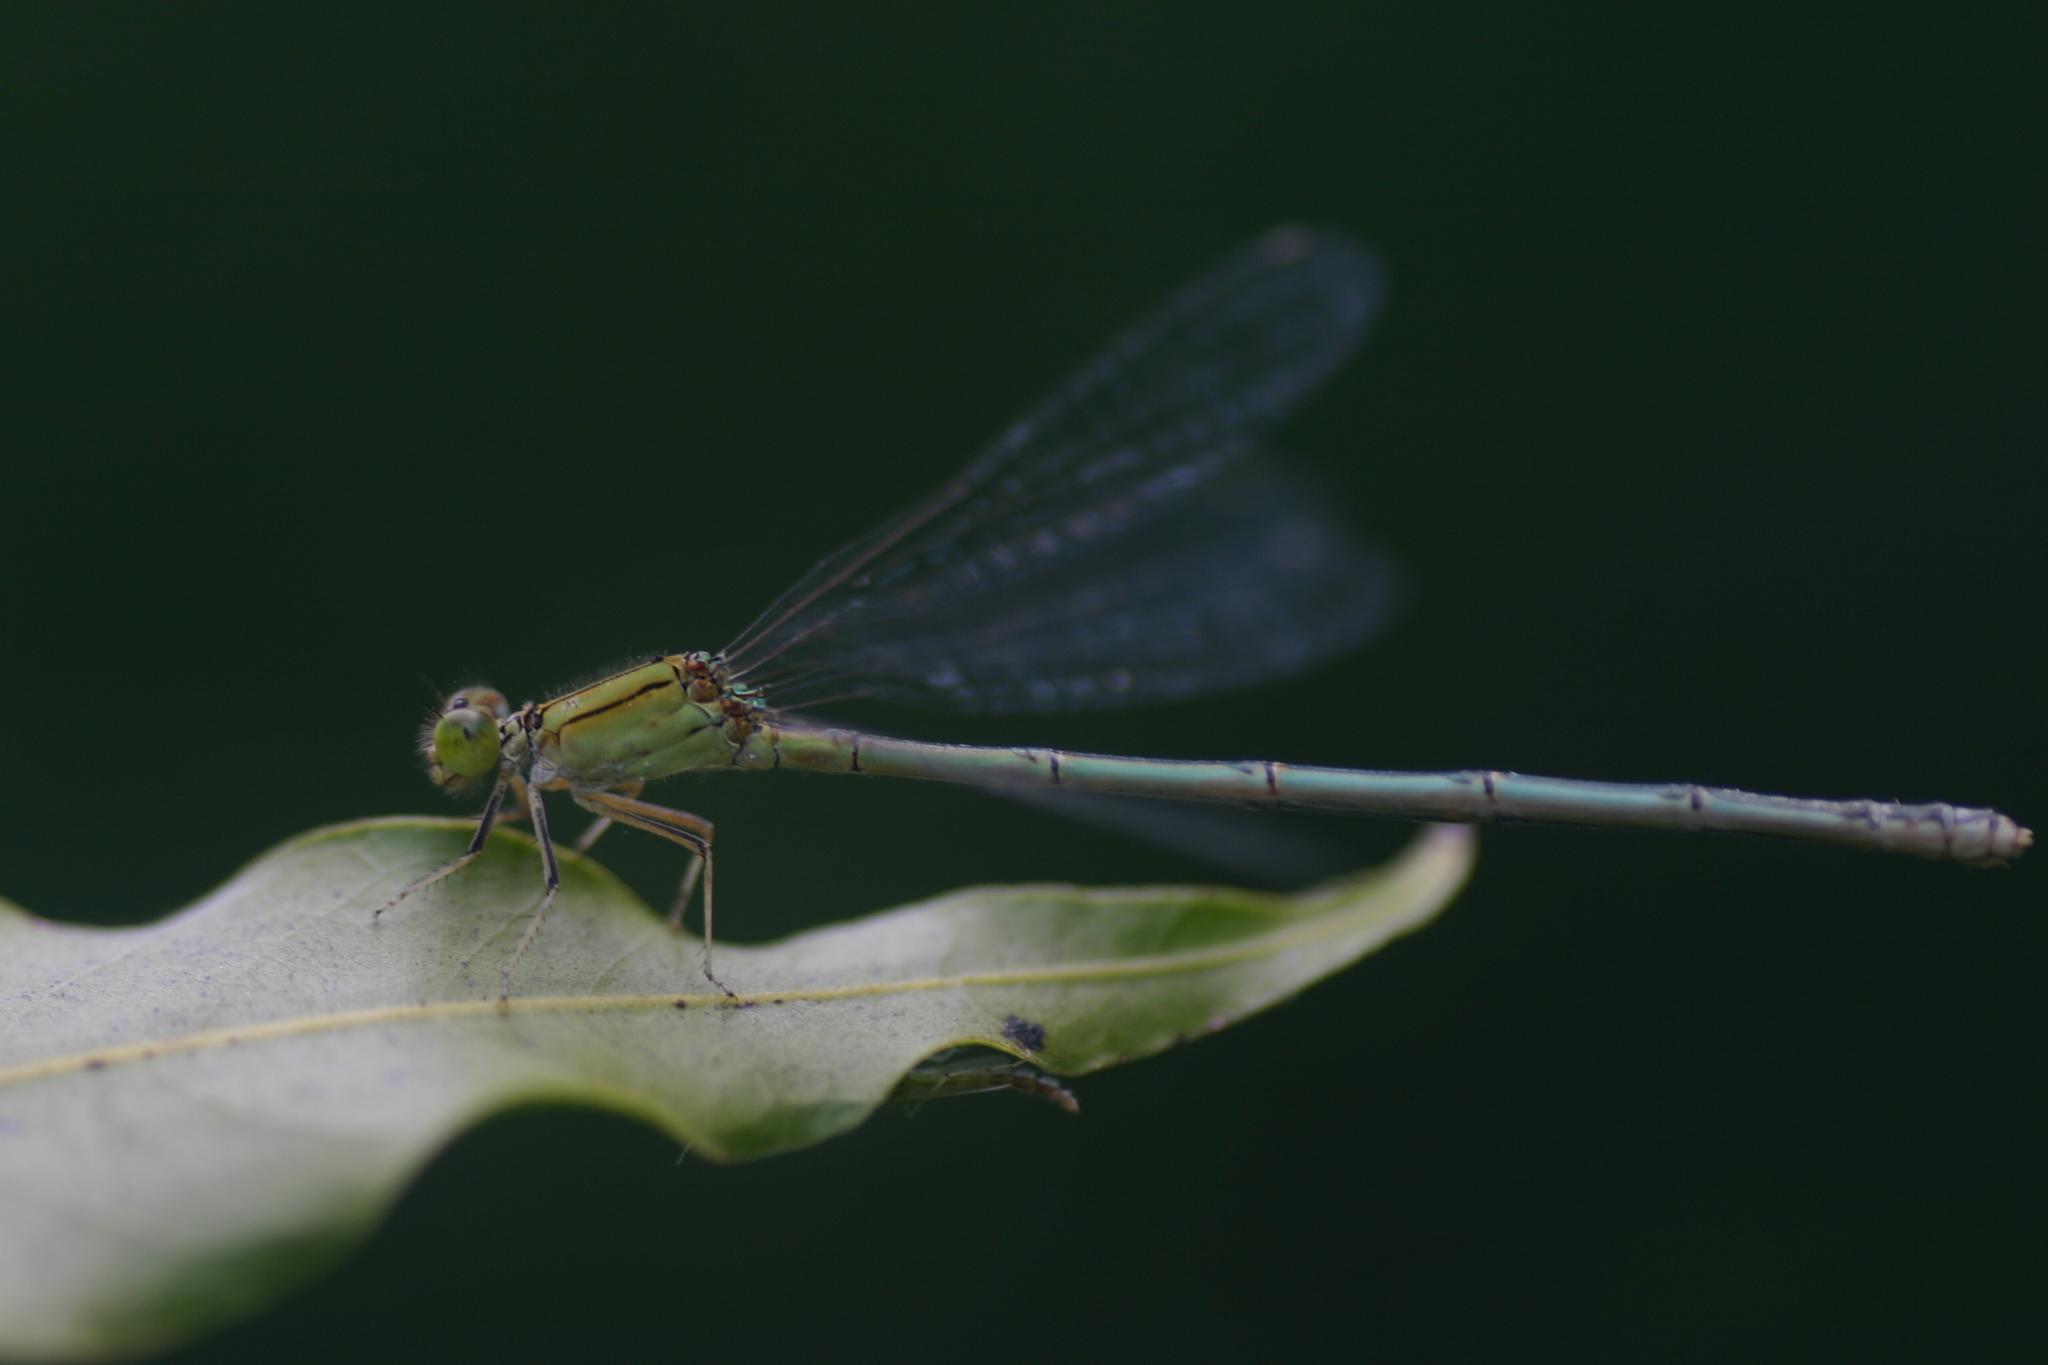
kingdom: Animalia
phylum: Arthropoda
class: Insecta
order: Odonata
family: Coenagrionidae
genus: Pseudagrion
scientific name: Pseudagrion decorum
